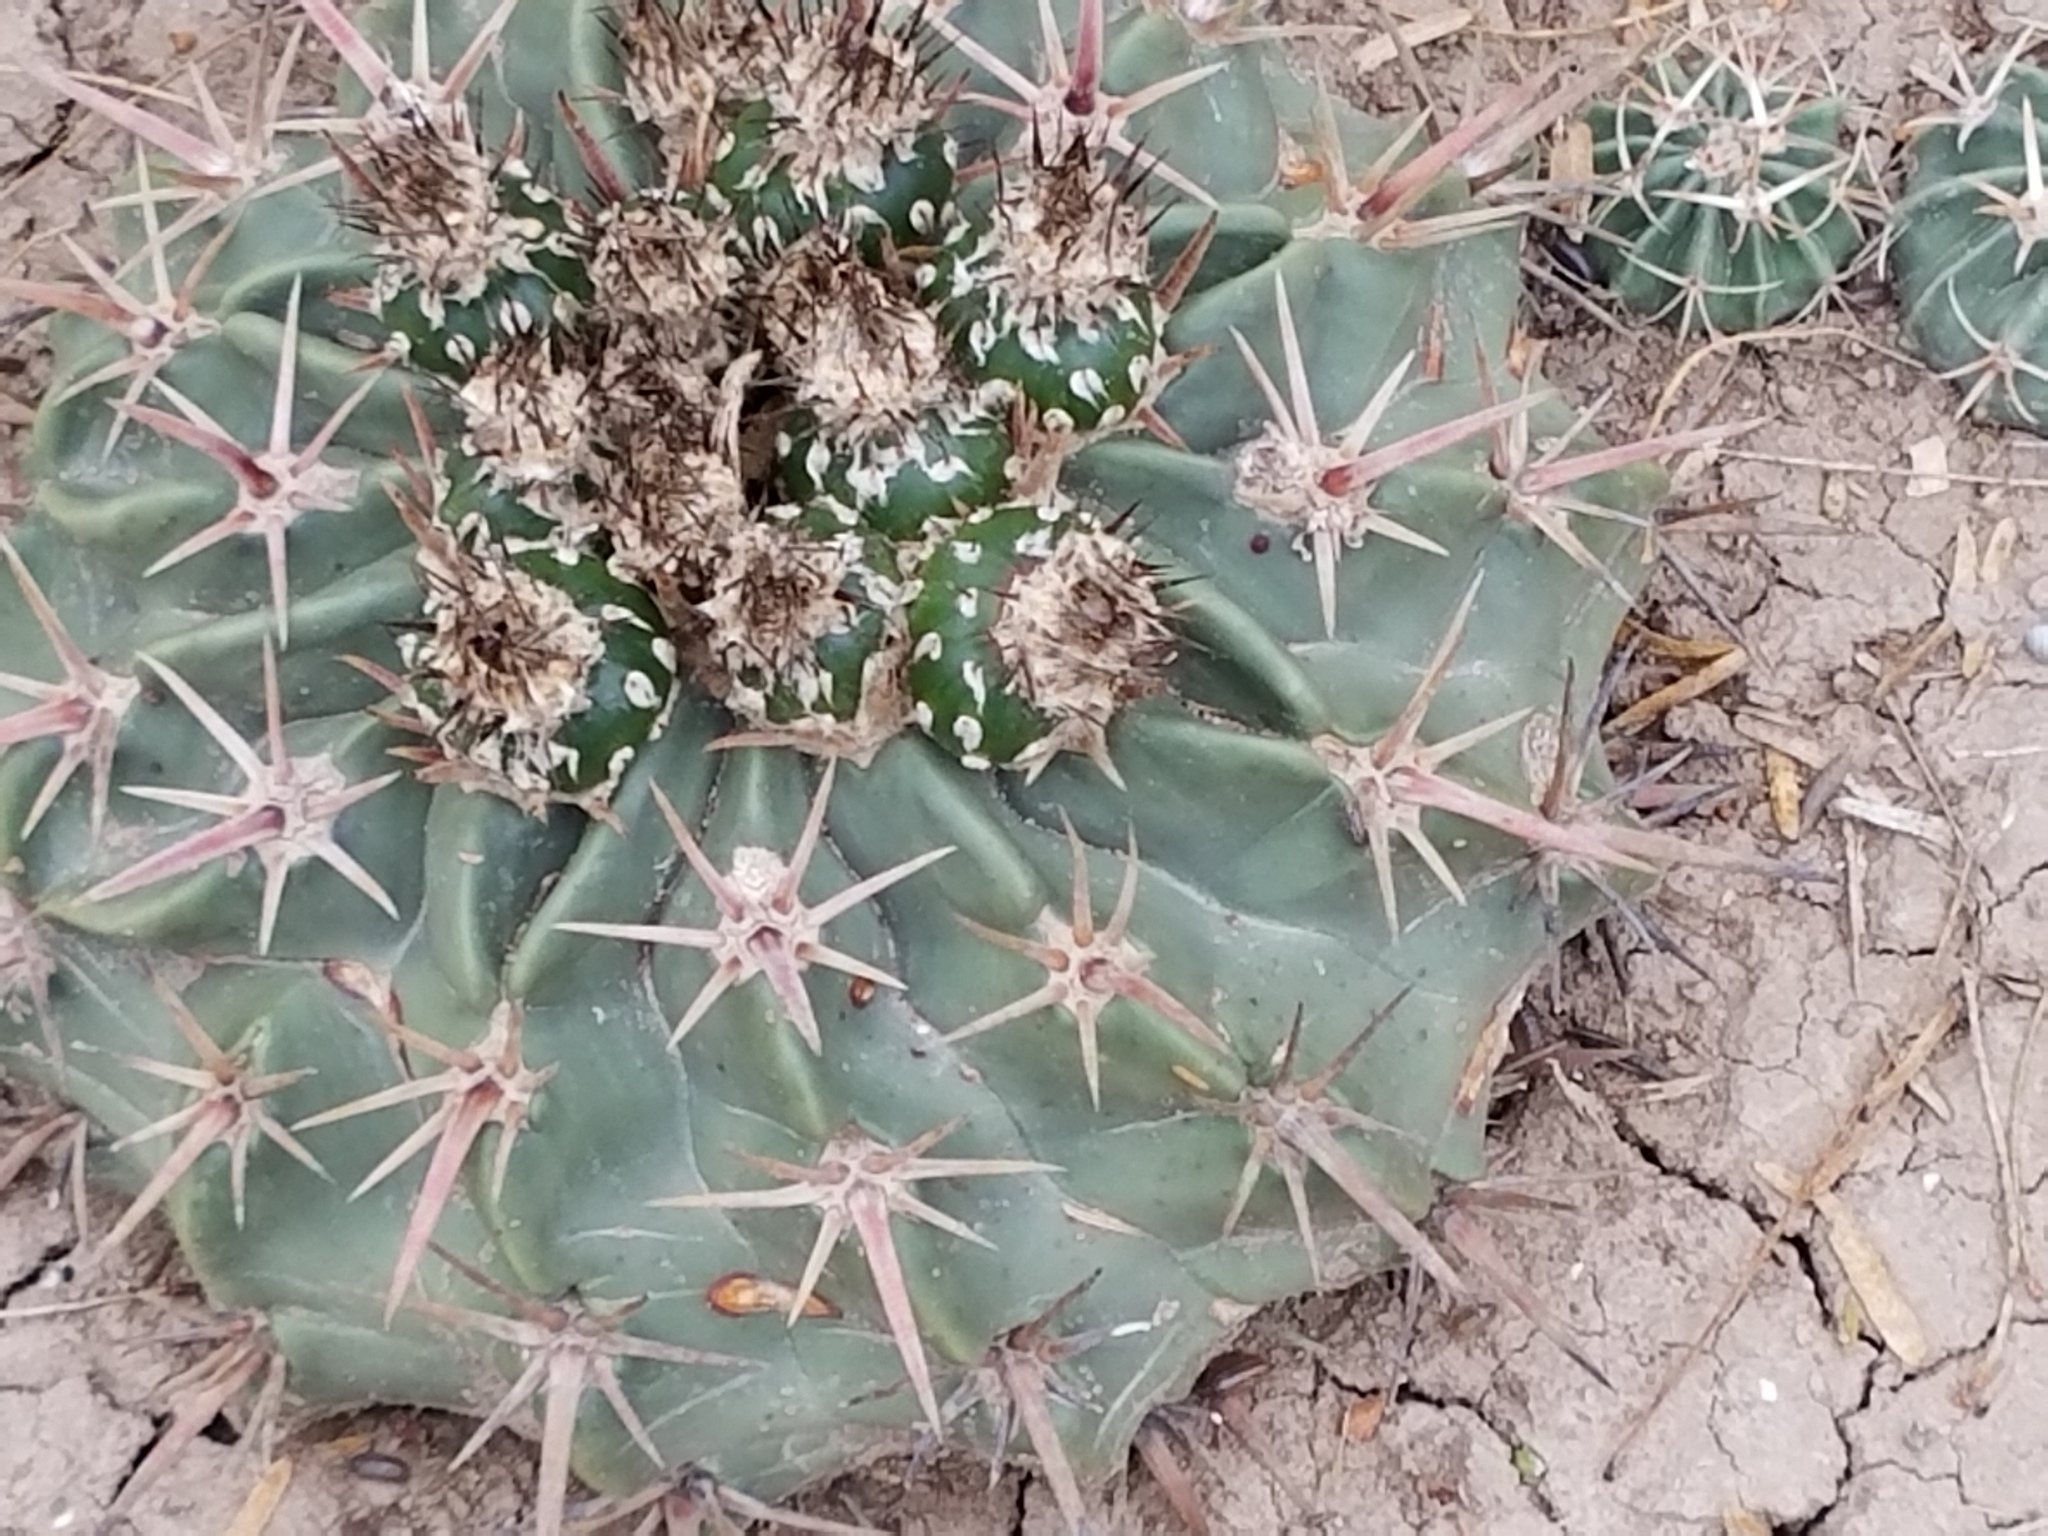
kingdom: Plantae
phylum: Tracheophyta
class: Magnoliopsida
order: Caryophyllales
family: Cactaceae
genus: Echinocactus
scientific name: Echinocactus texensis
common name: Devil's pincushion
